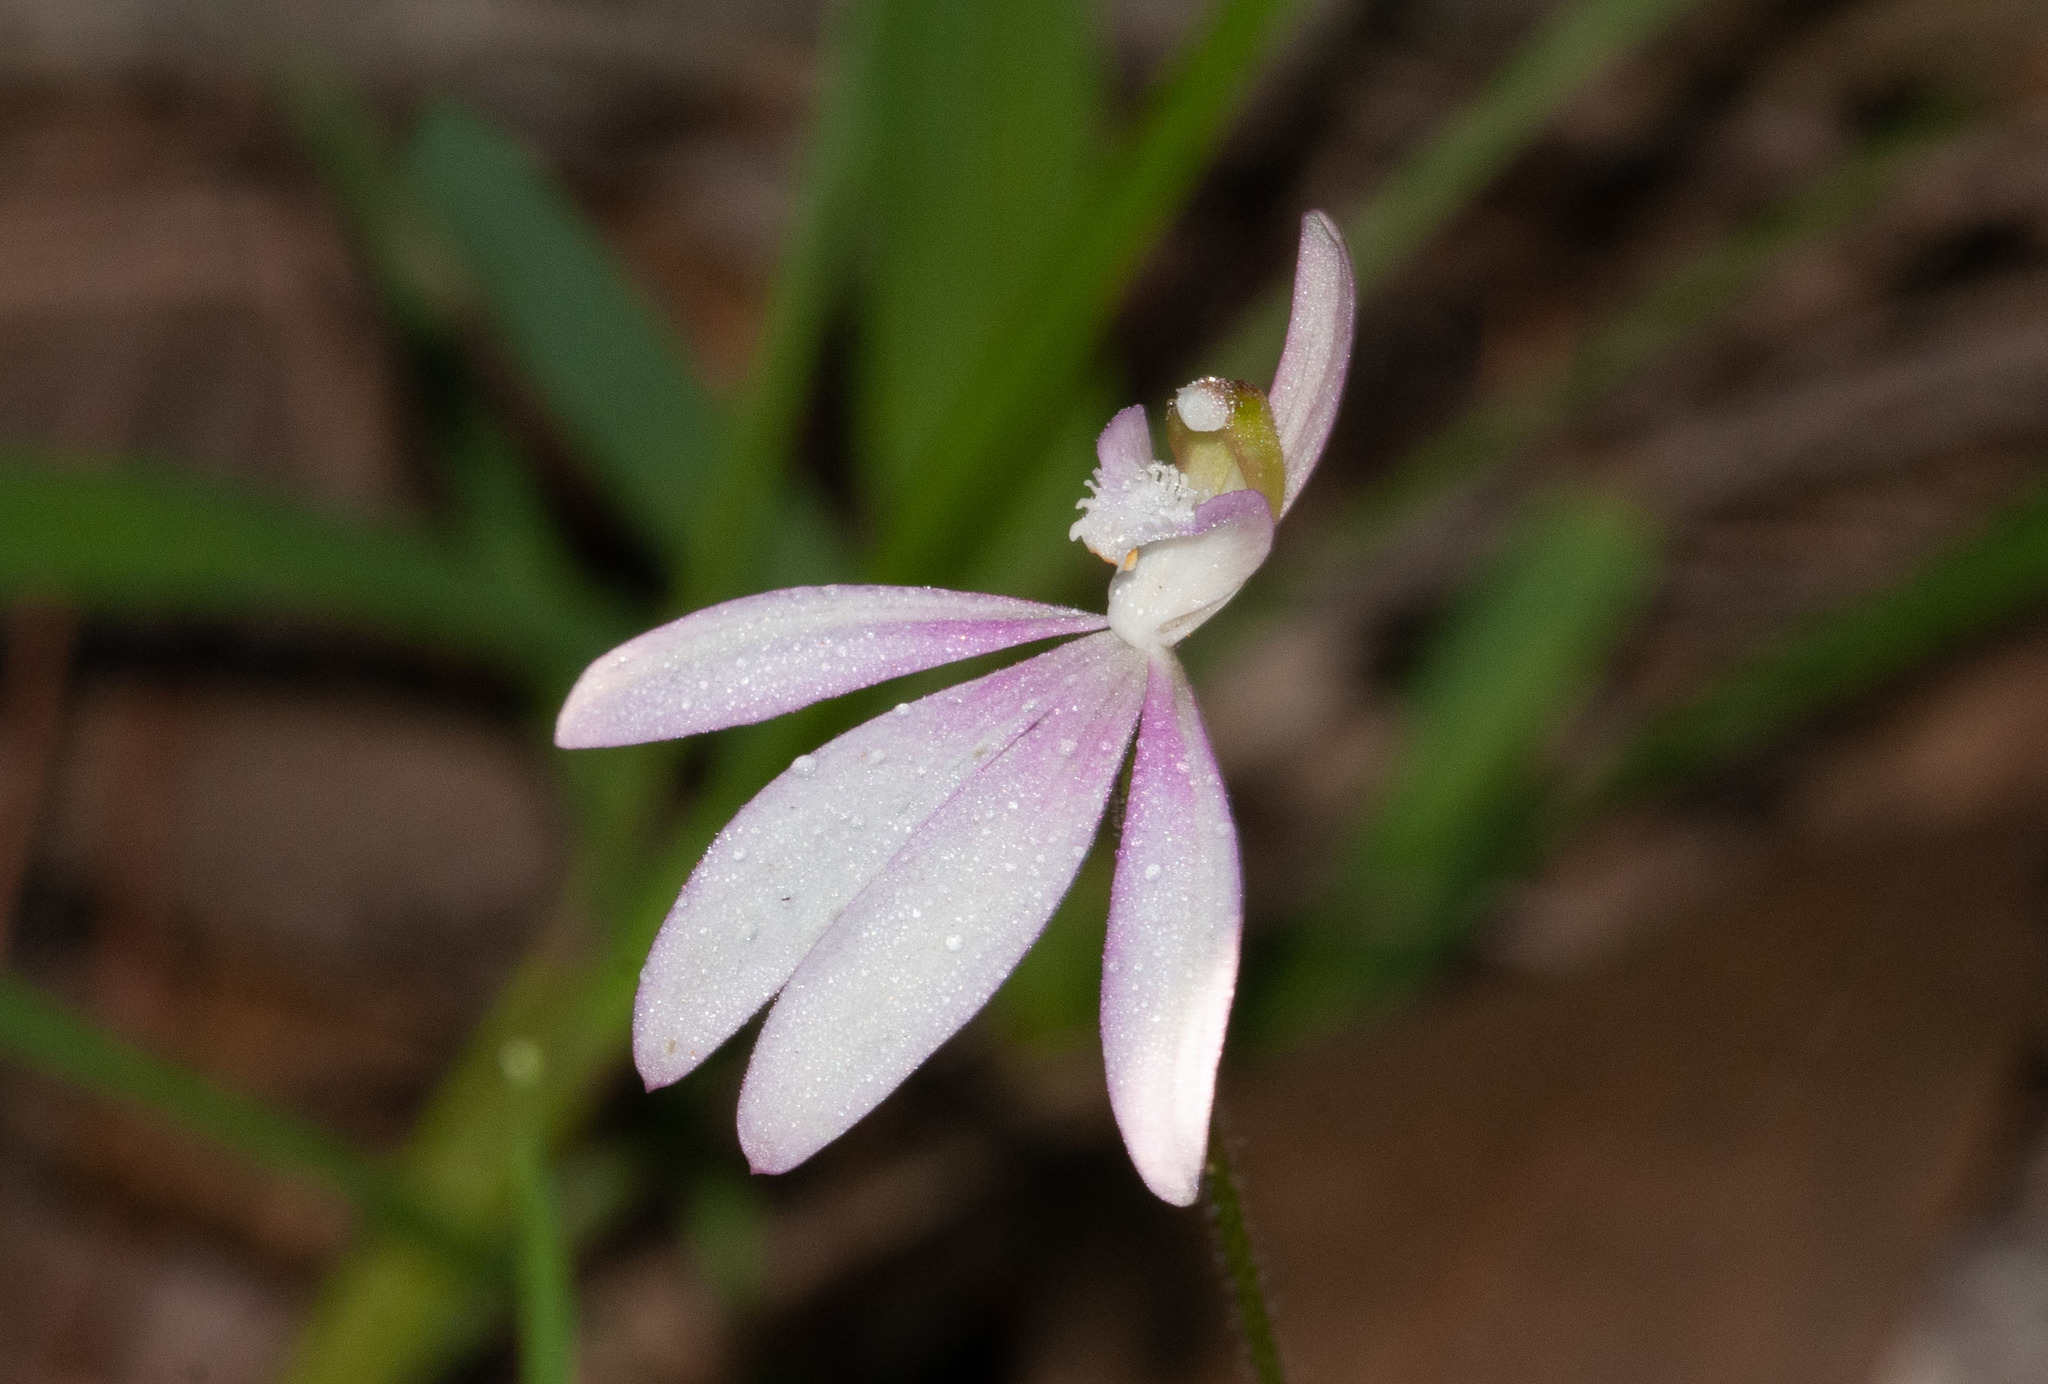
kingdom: Plantae
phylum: Tracheophyta
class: Liliopsida
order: Asparagales
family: Orchidaceae
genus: Caladenia
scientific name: Caladenia catenata
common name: White caladenia
